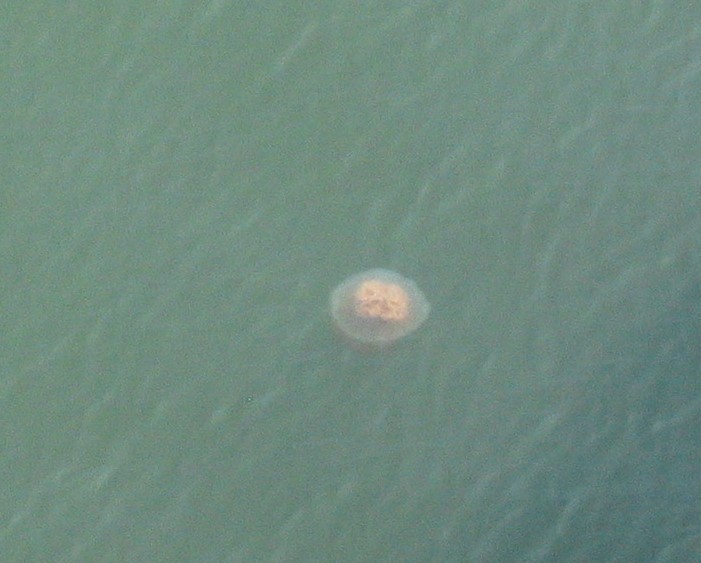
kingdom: Animalia
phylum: Cnidaria
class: Scyphozoa
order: Rhizostomeae
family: Rhizostomatidae
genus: Rhopilema
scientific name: Rhopilema verrilli
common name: Mushroom cap jellyfish
